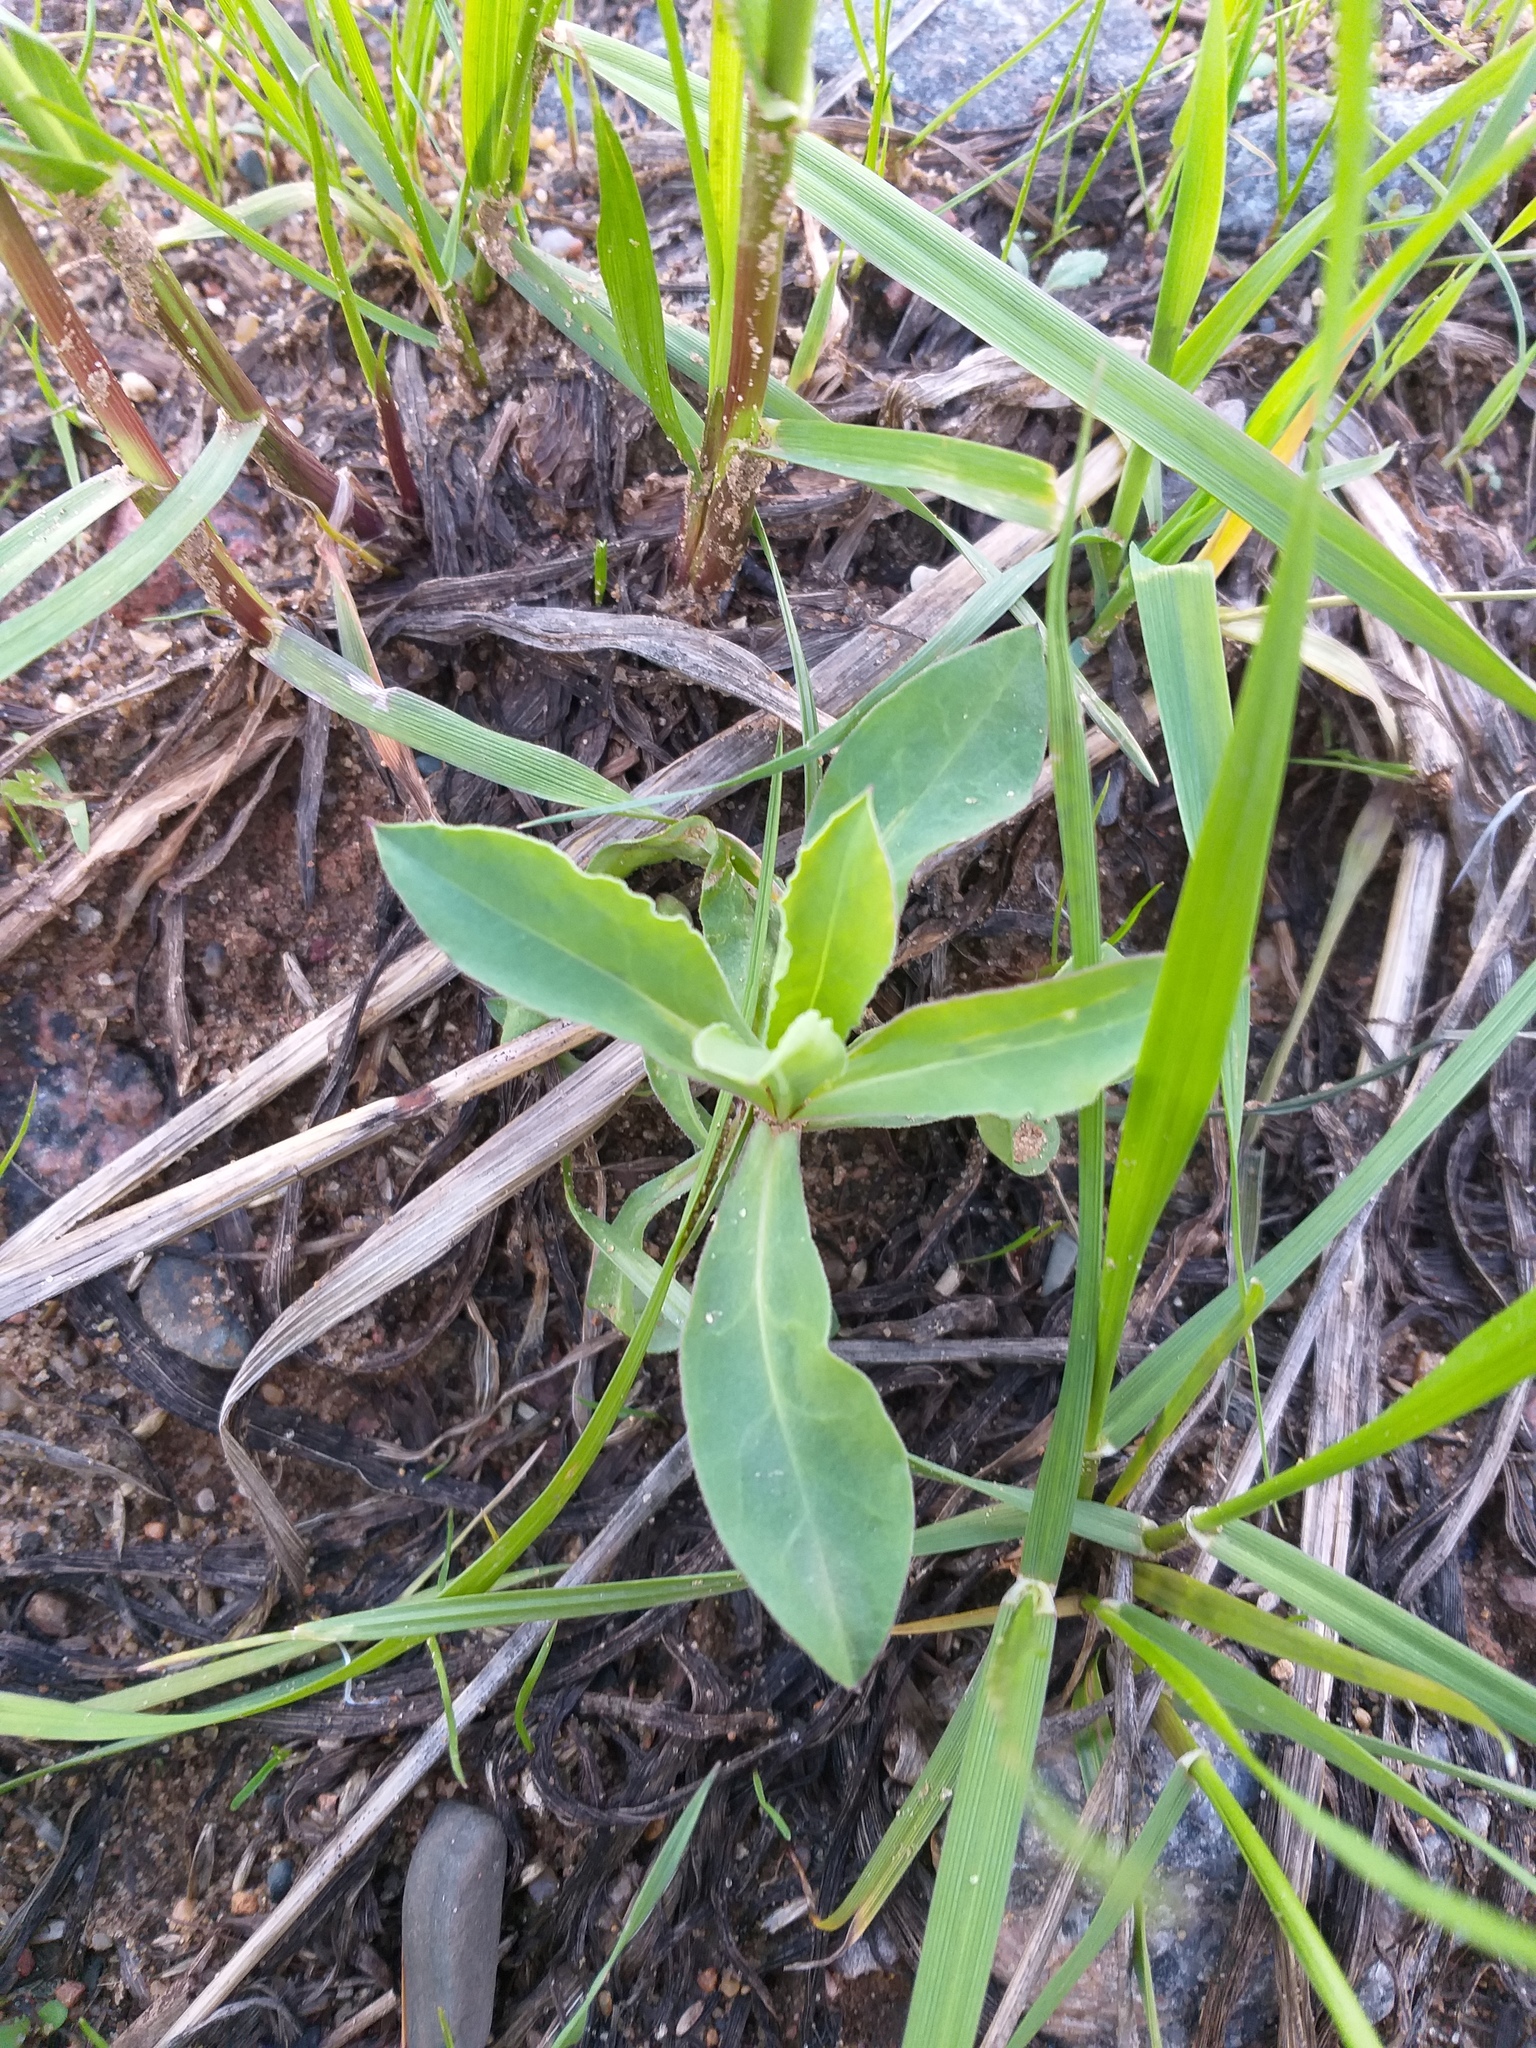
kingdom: Plantae
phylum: Tracheophyta
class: Magnoliopsida
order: Caryophyllales
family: Caryophyllaceae
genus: Silene
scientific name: Silene vulgaris
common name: Bladder campion
